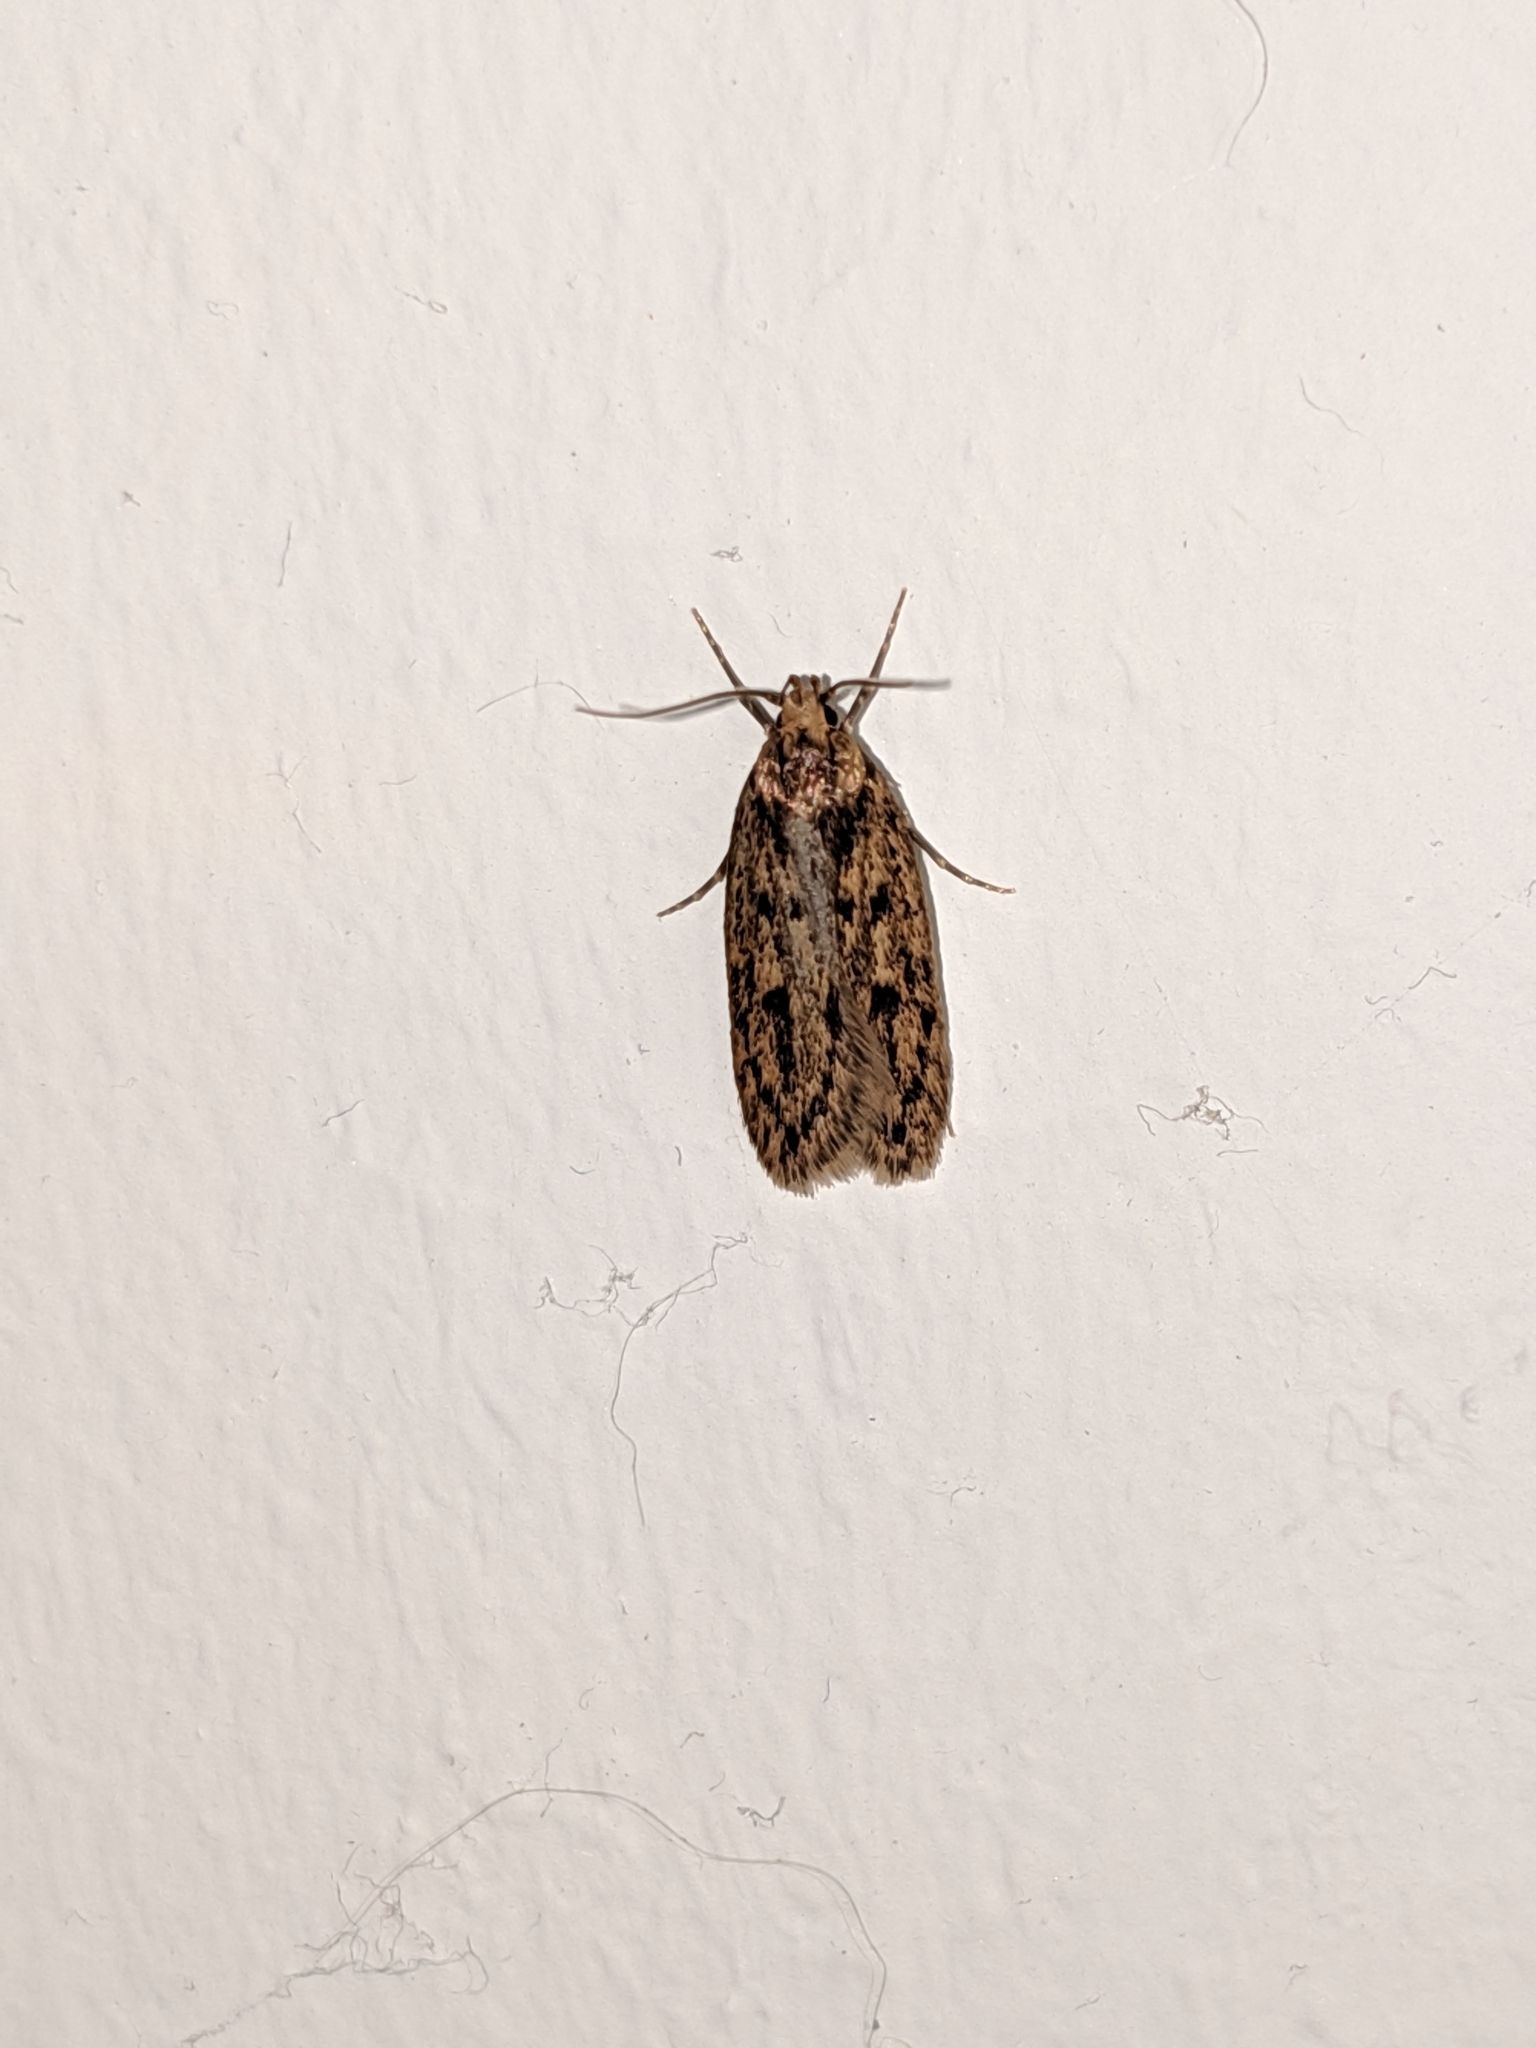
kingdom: Animalia
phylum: Arthropoda
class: Insecta
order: Lepidoptera
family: Oecophoridae
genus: Hofmannophila
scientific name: Hofmannophila pseudospretella
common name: Brown house moth
